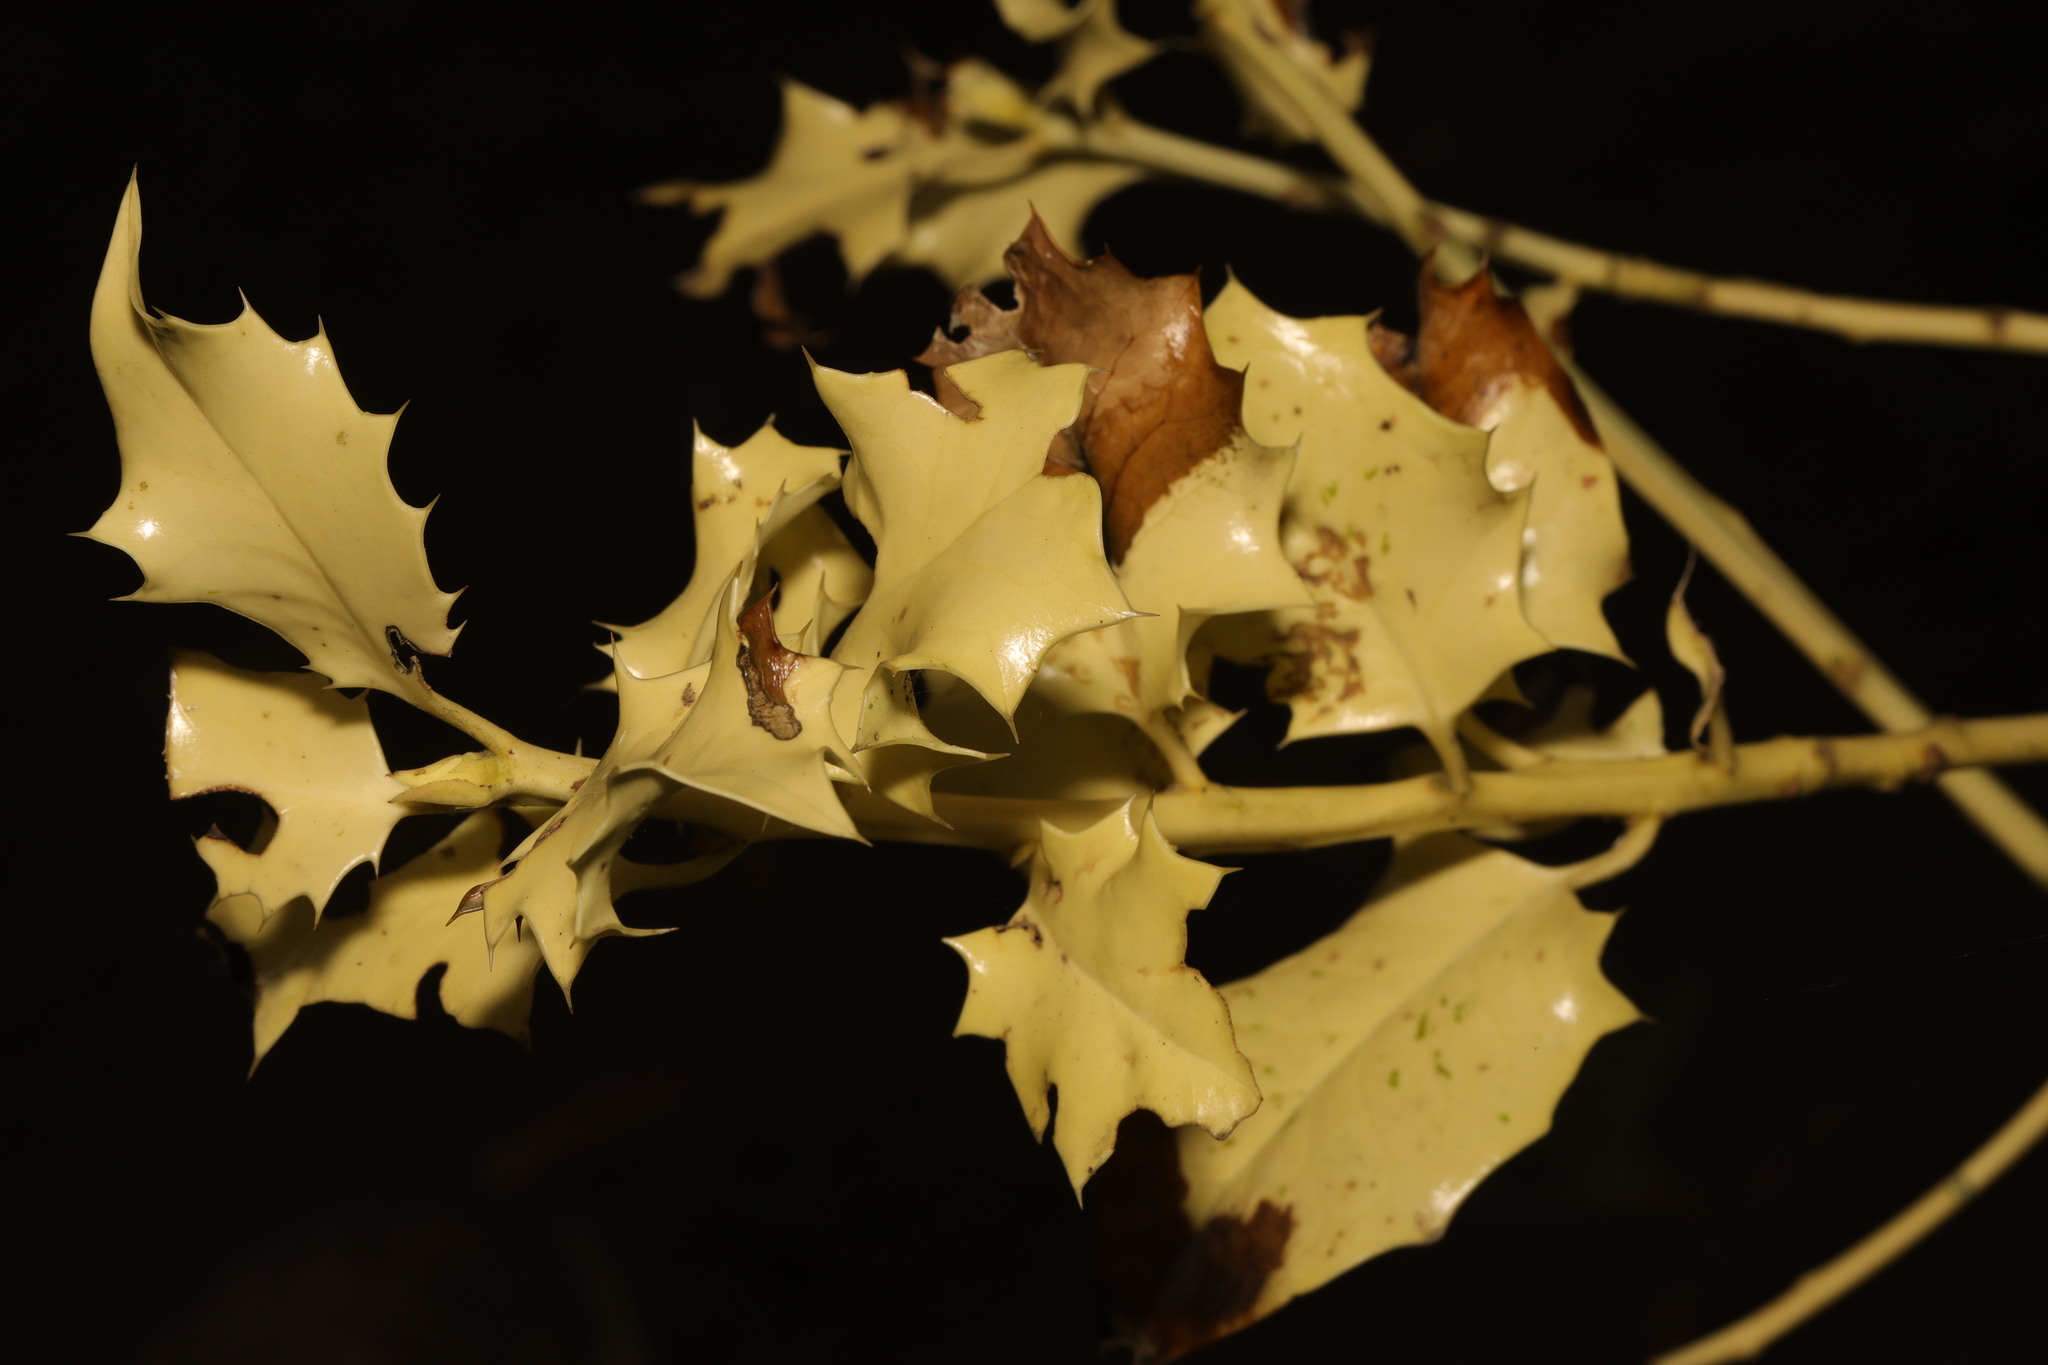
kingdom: Plantae
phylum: Tracheophyta
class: Magnoliopsida
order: Aquifoliales
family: Aquifoliaceae
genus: Ilex
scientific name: Ilex aquifolium
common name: English holly
